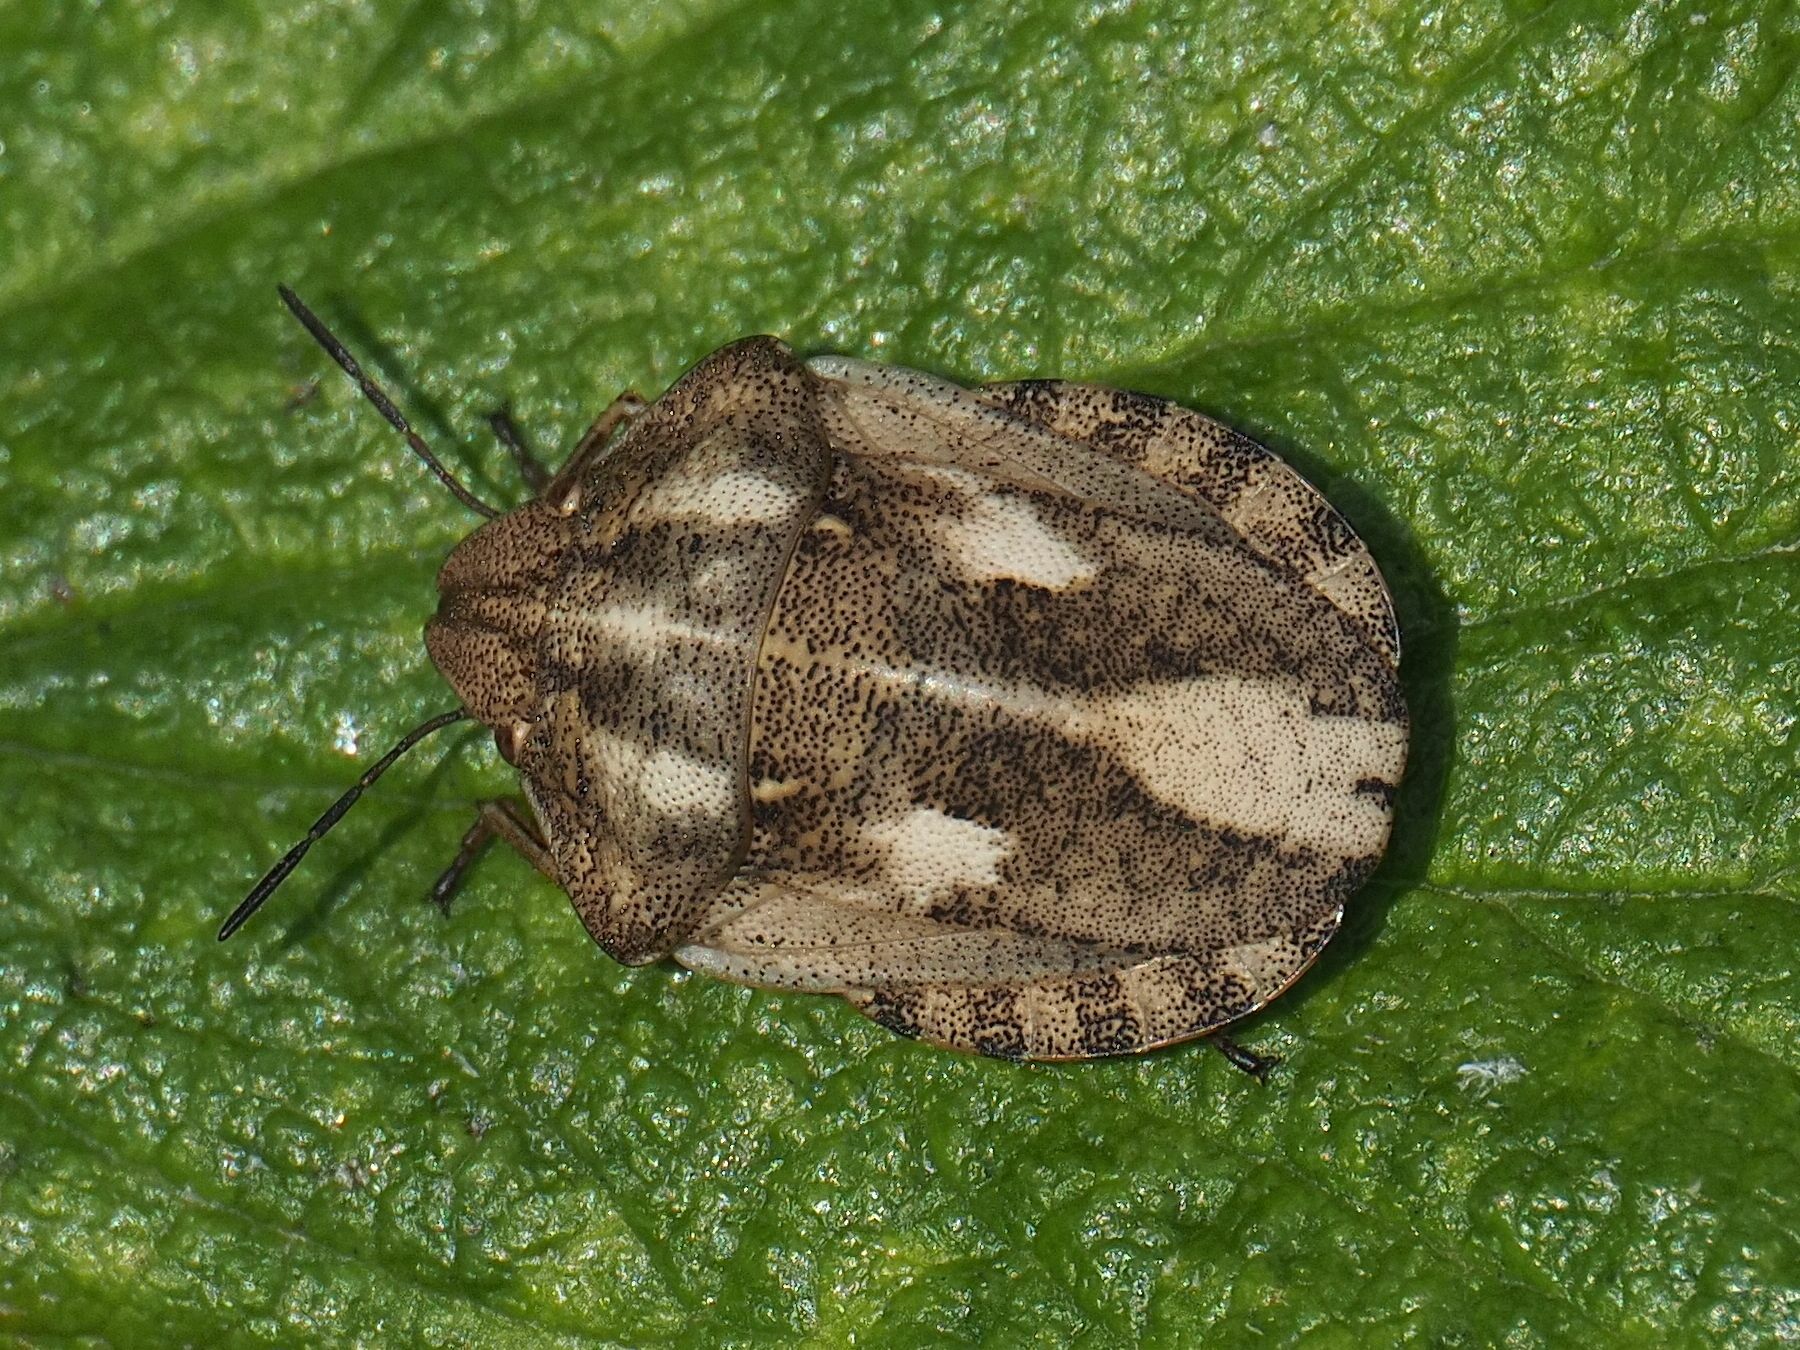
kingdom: Animalia
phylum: Arthropoda
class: Insecta
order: Hemiptera
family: Scutelleridae
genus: Eurygaster
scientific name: Eurygaster testudinaria
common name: Tortoise bug
